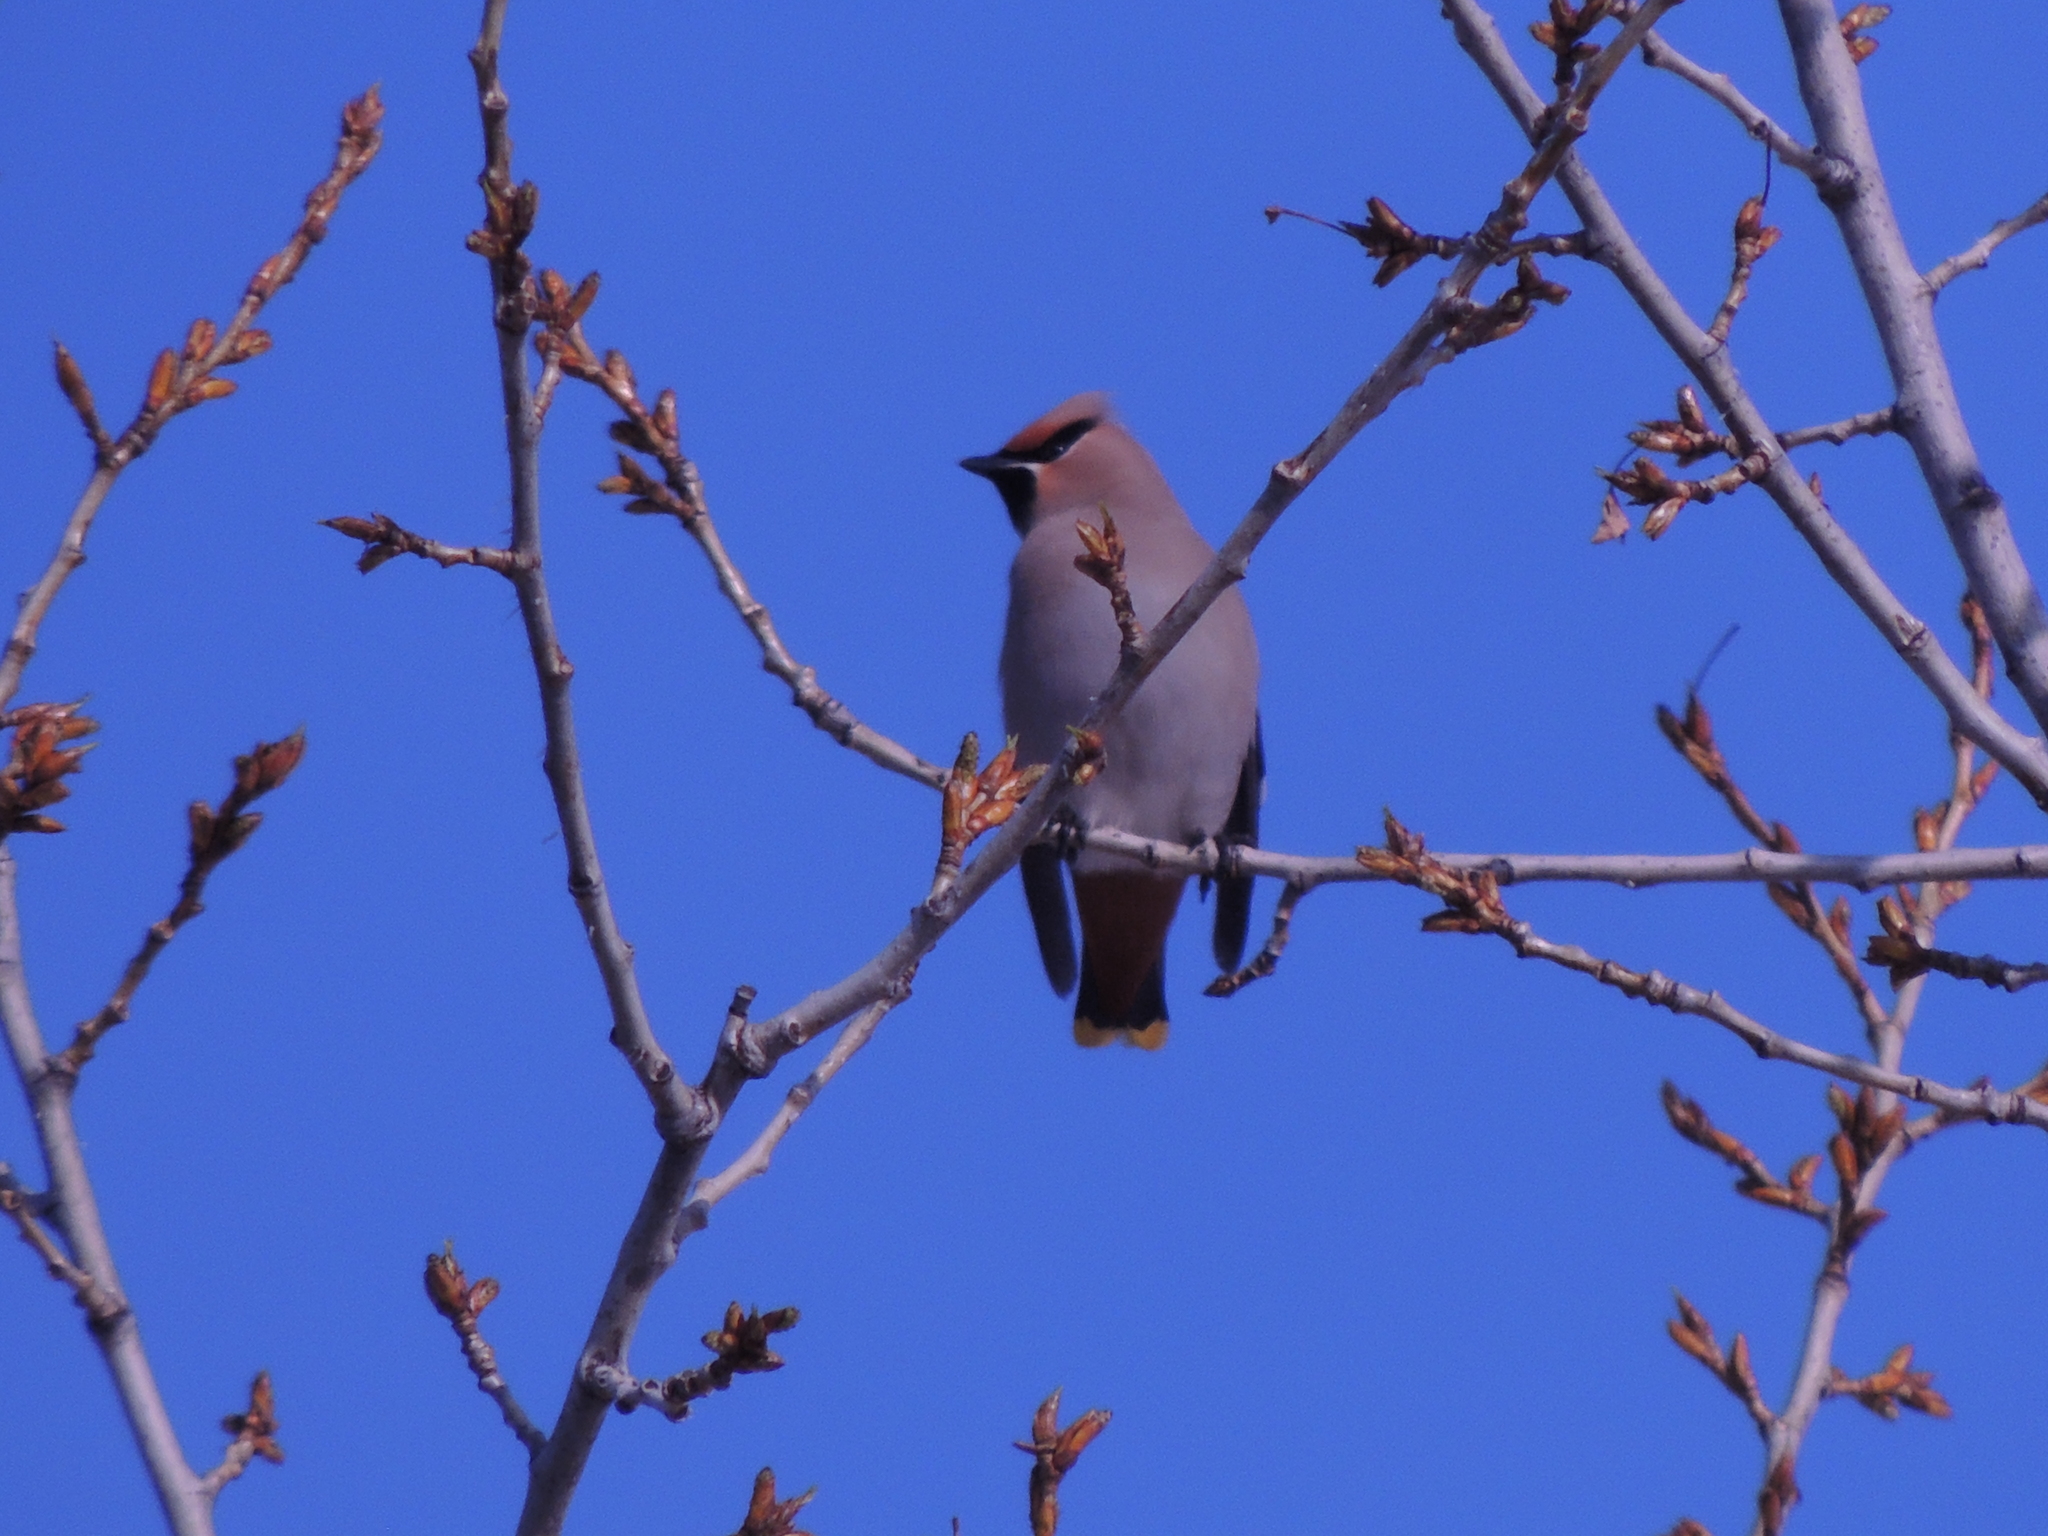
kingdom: Animalia
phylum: Chordata
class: Aves
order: Passeriformes
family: Bombycillidae
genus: Bombycilla
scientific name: Bombycilla garrulus
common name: Bohemian waxwing
